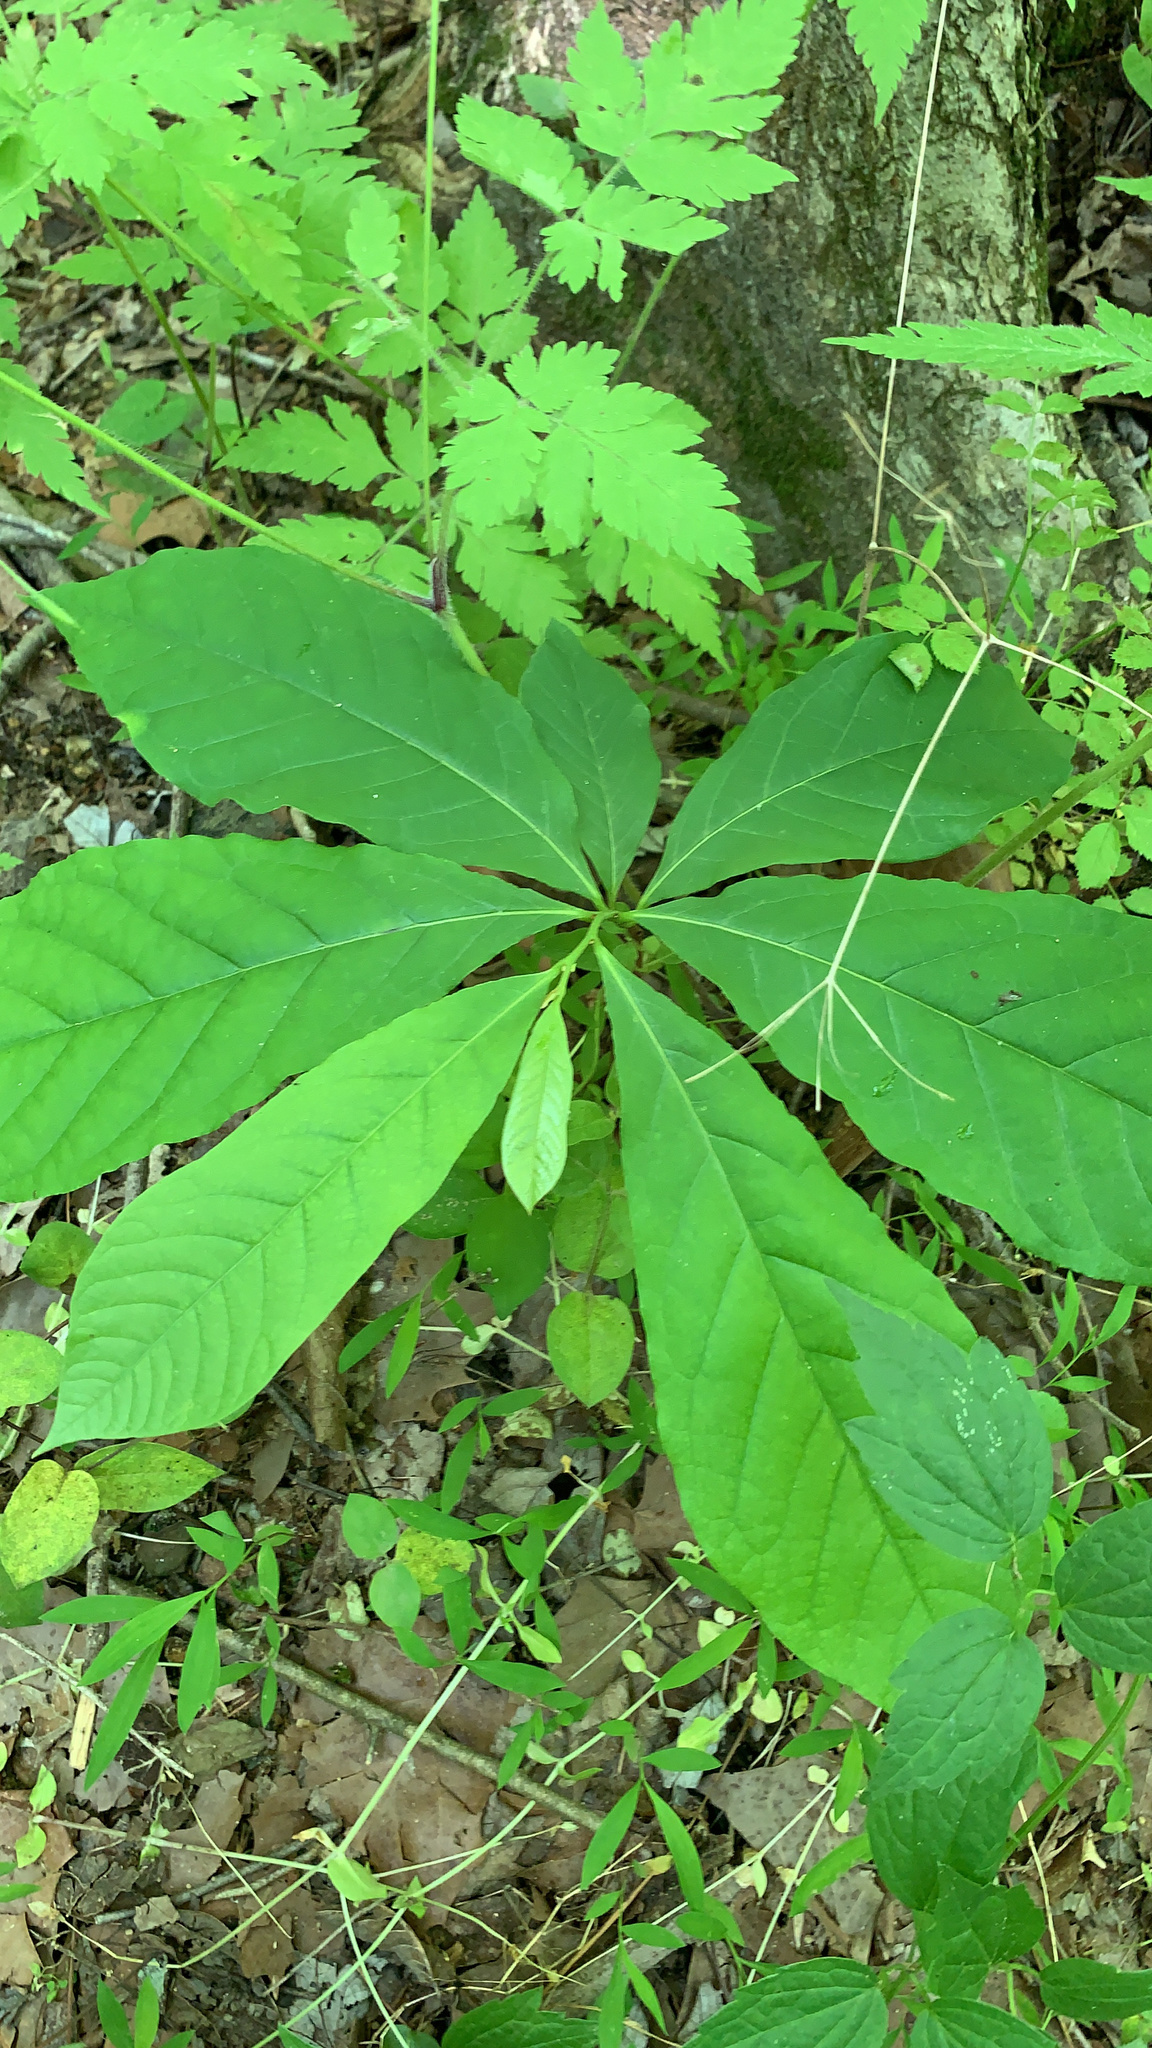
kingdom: Plantae
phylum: Tracheophyta
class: Magnoliopsida
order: Magnoliales
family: Annonaceae
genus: Asimina
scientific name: Asimina triloba
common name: Dog-banana
